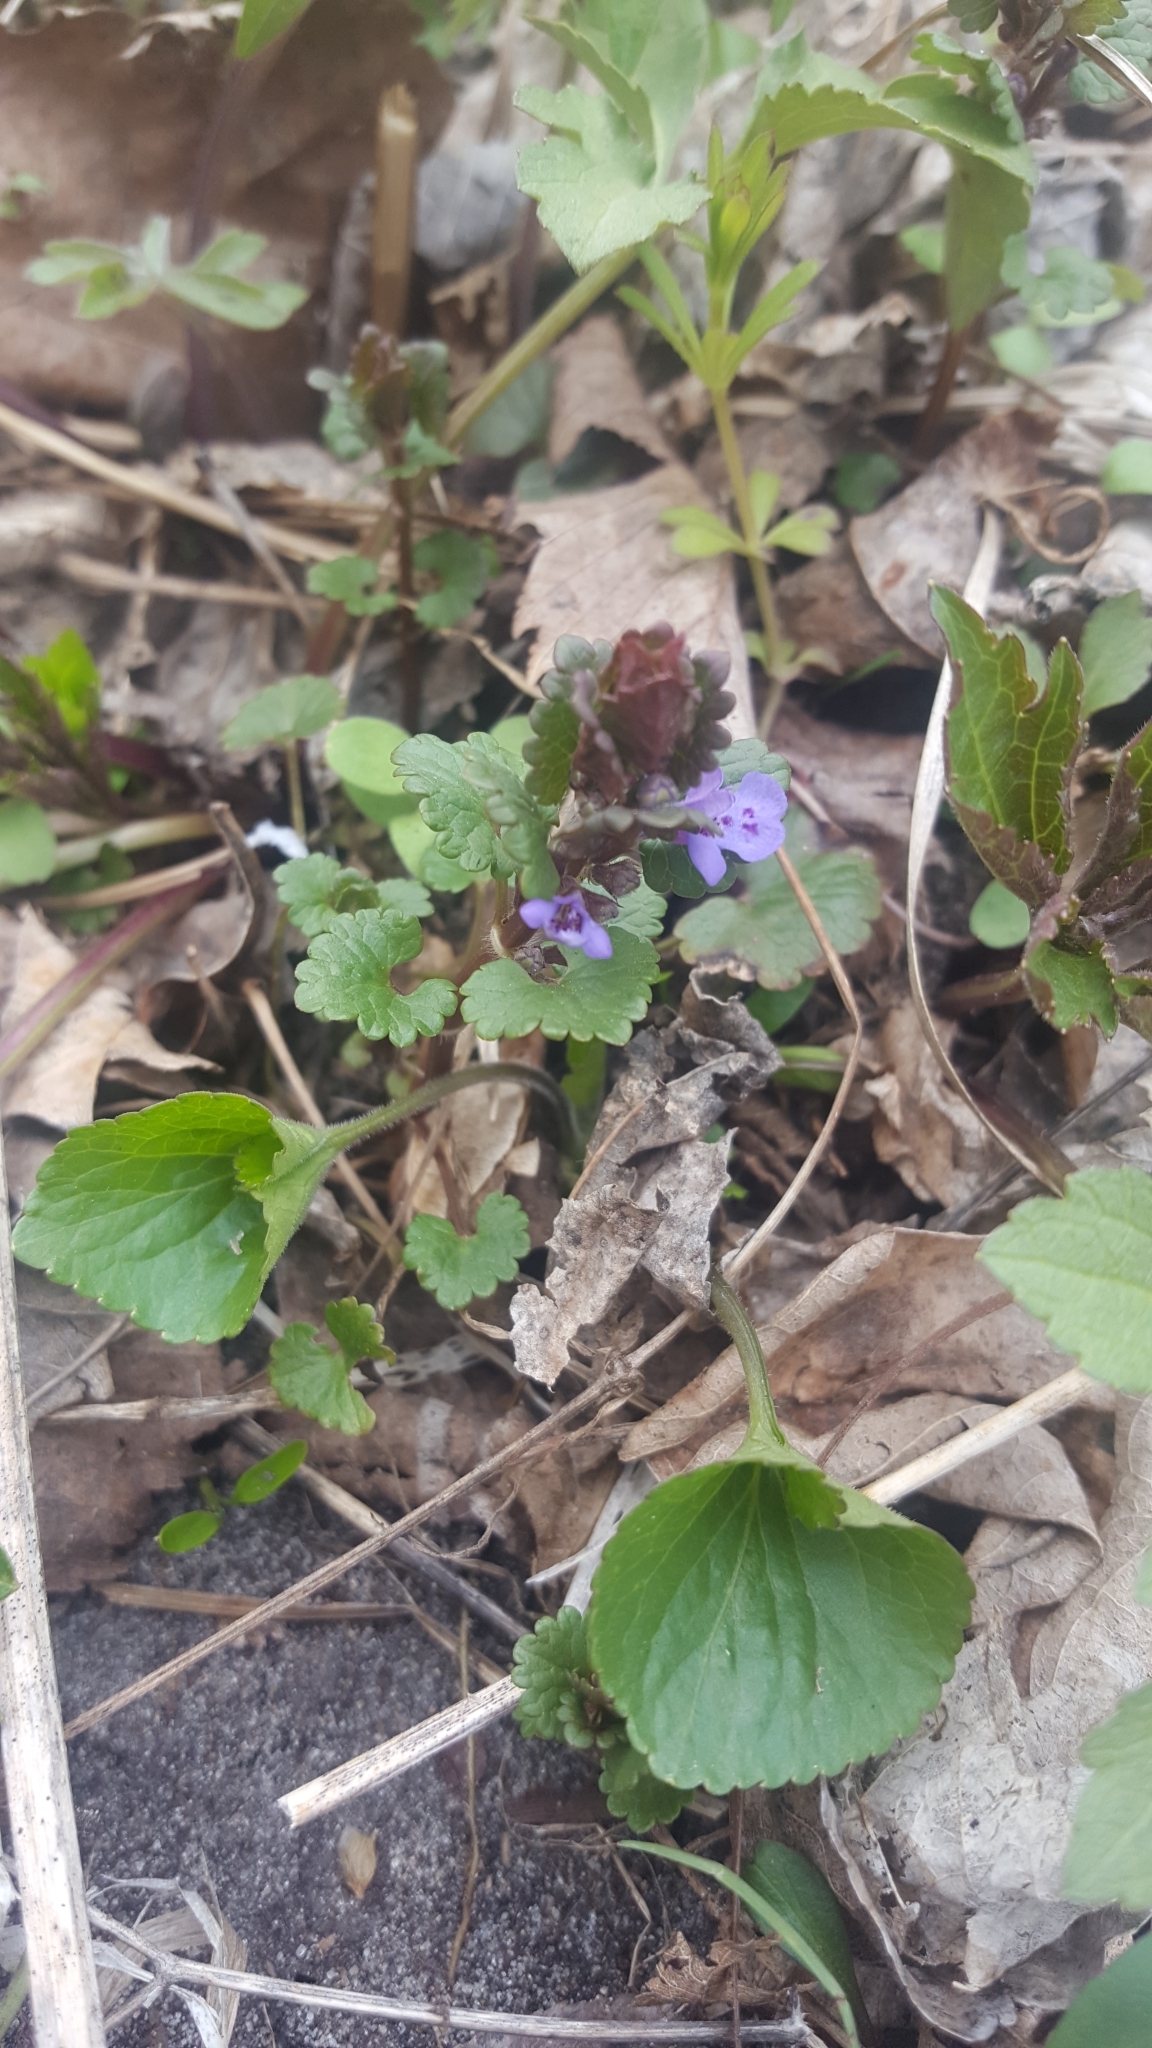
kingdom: Plantae
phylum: Tracheophyta
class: Magnoliopsida
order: Lamiales
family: Lamiaceae
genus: Glechoma
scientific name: Glechoma hederacea
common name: Ground ivy
